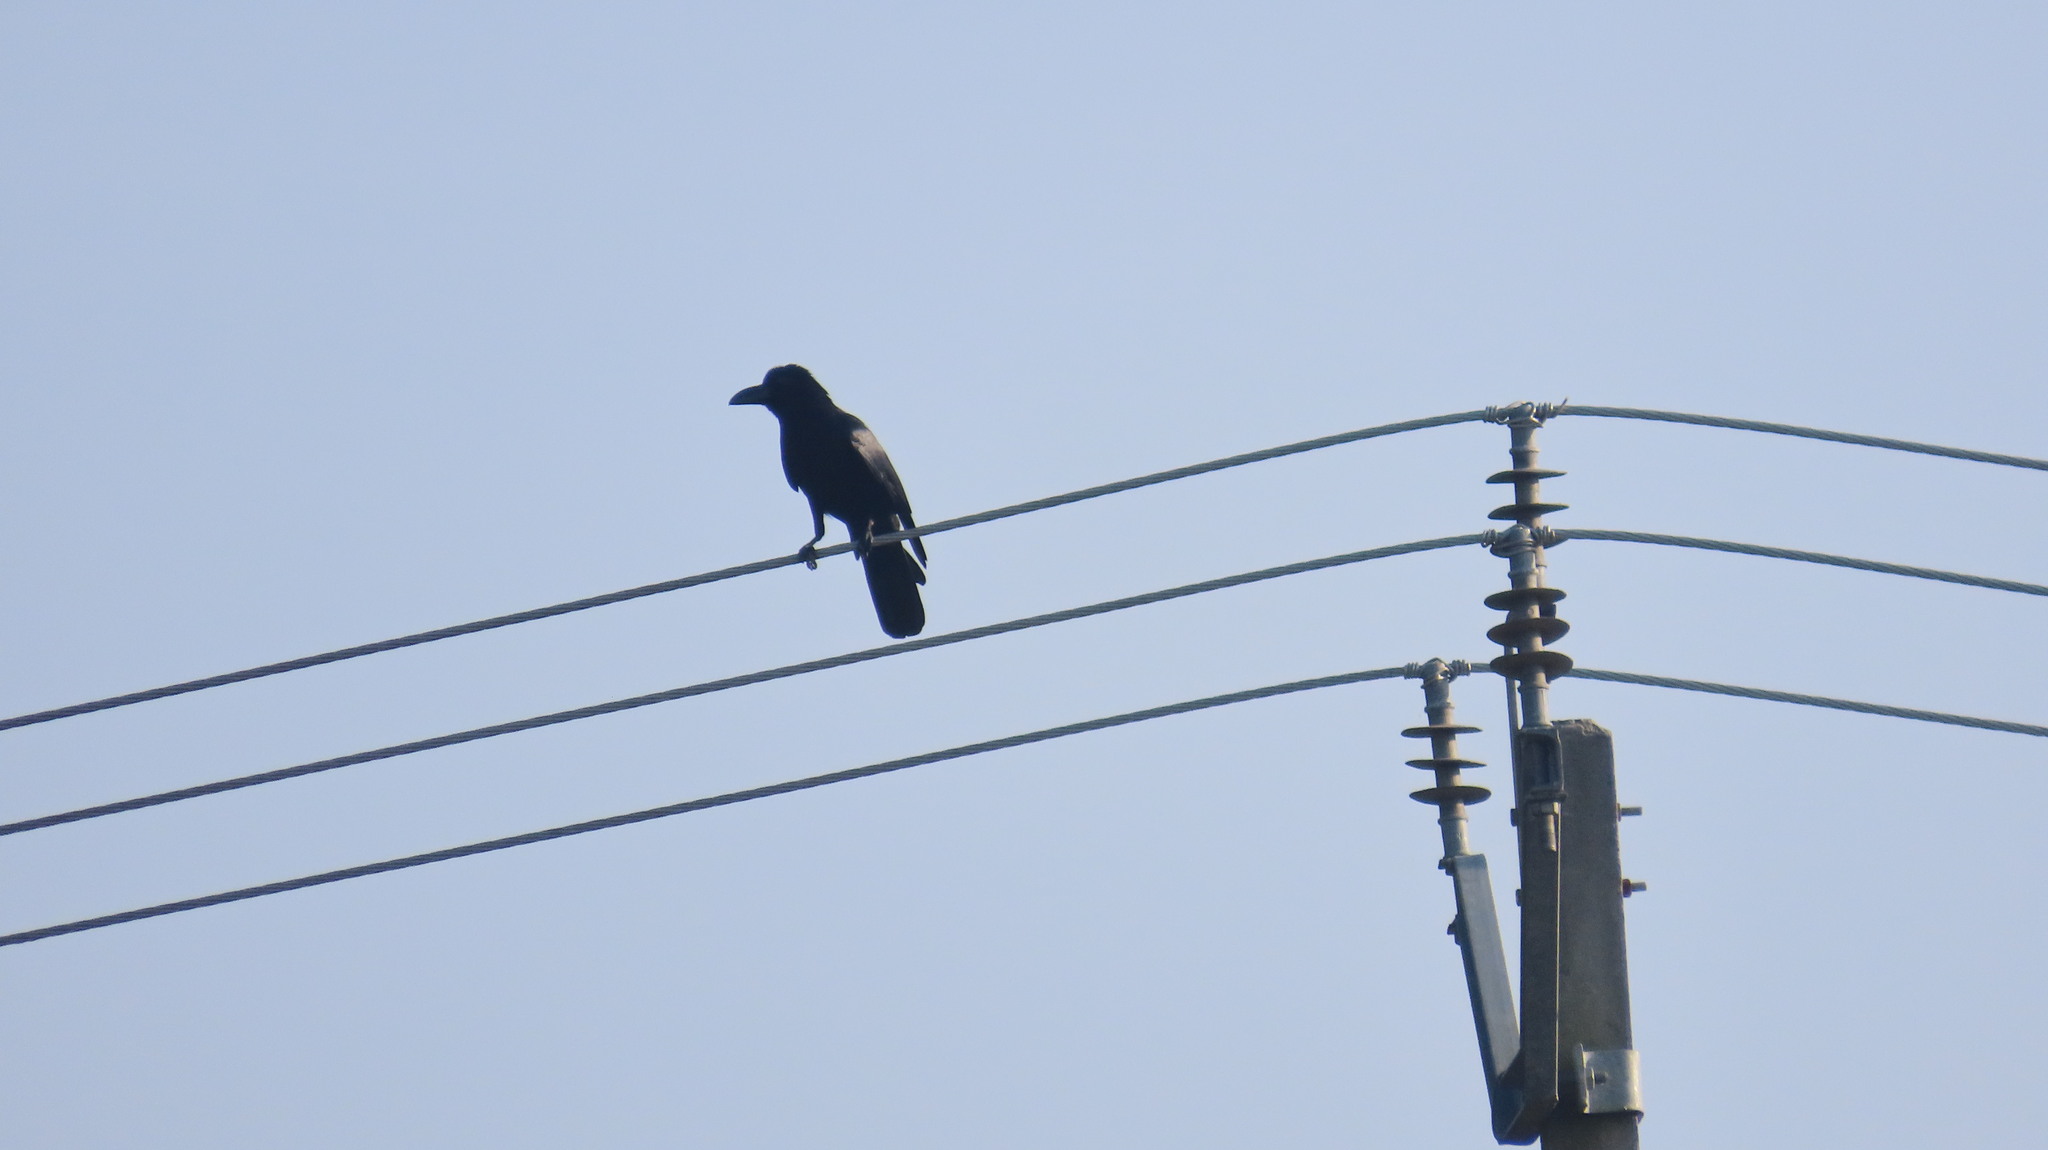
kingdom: Animalia
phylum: Chordata
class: Aves
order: Passeriformes
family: Corvidae
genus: Corvus
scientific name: Corvus macrorhynchos
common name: Large-billed crow
